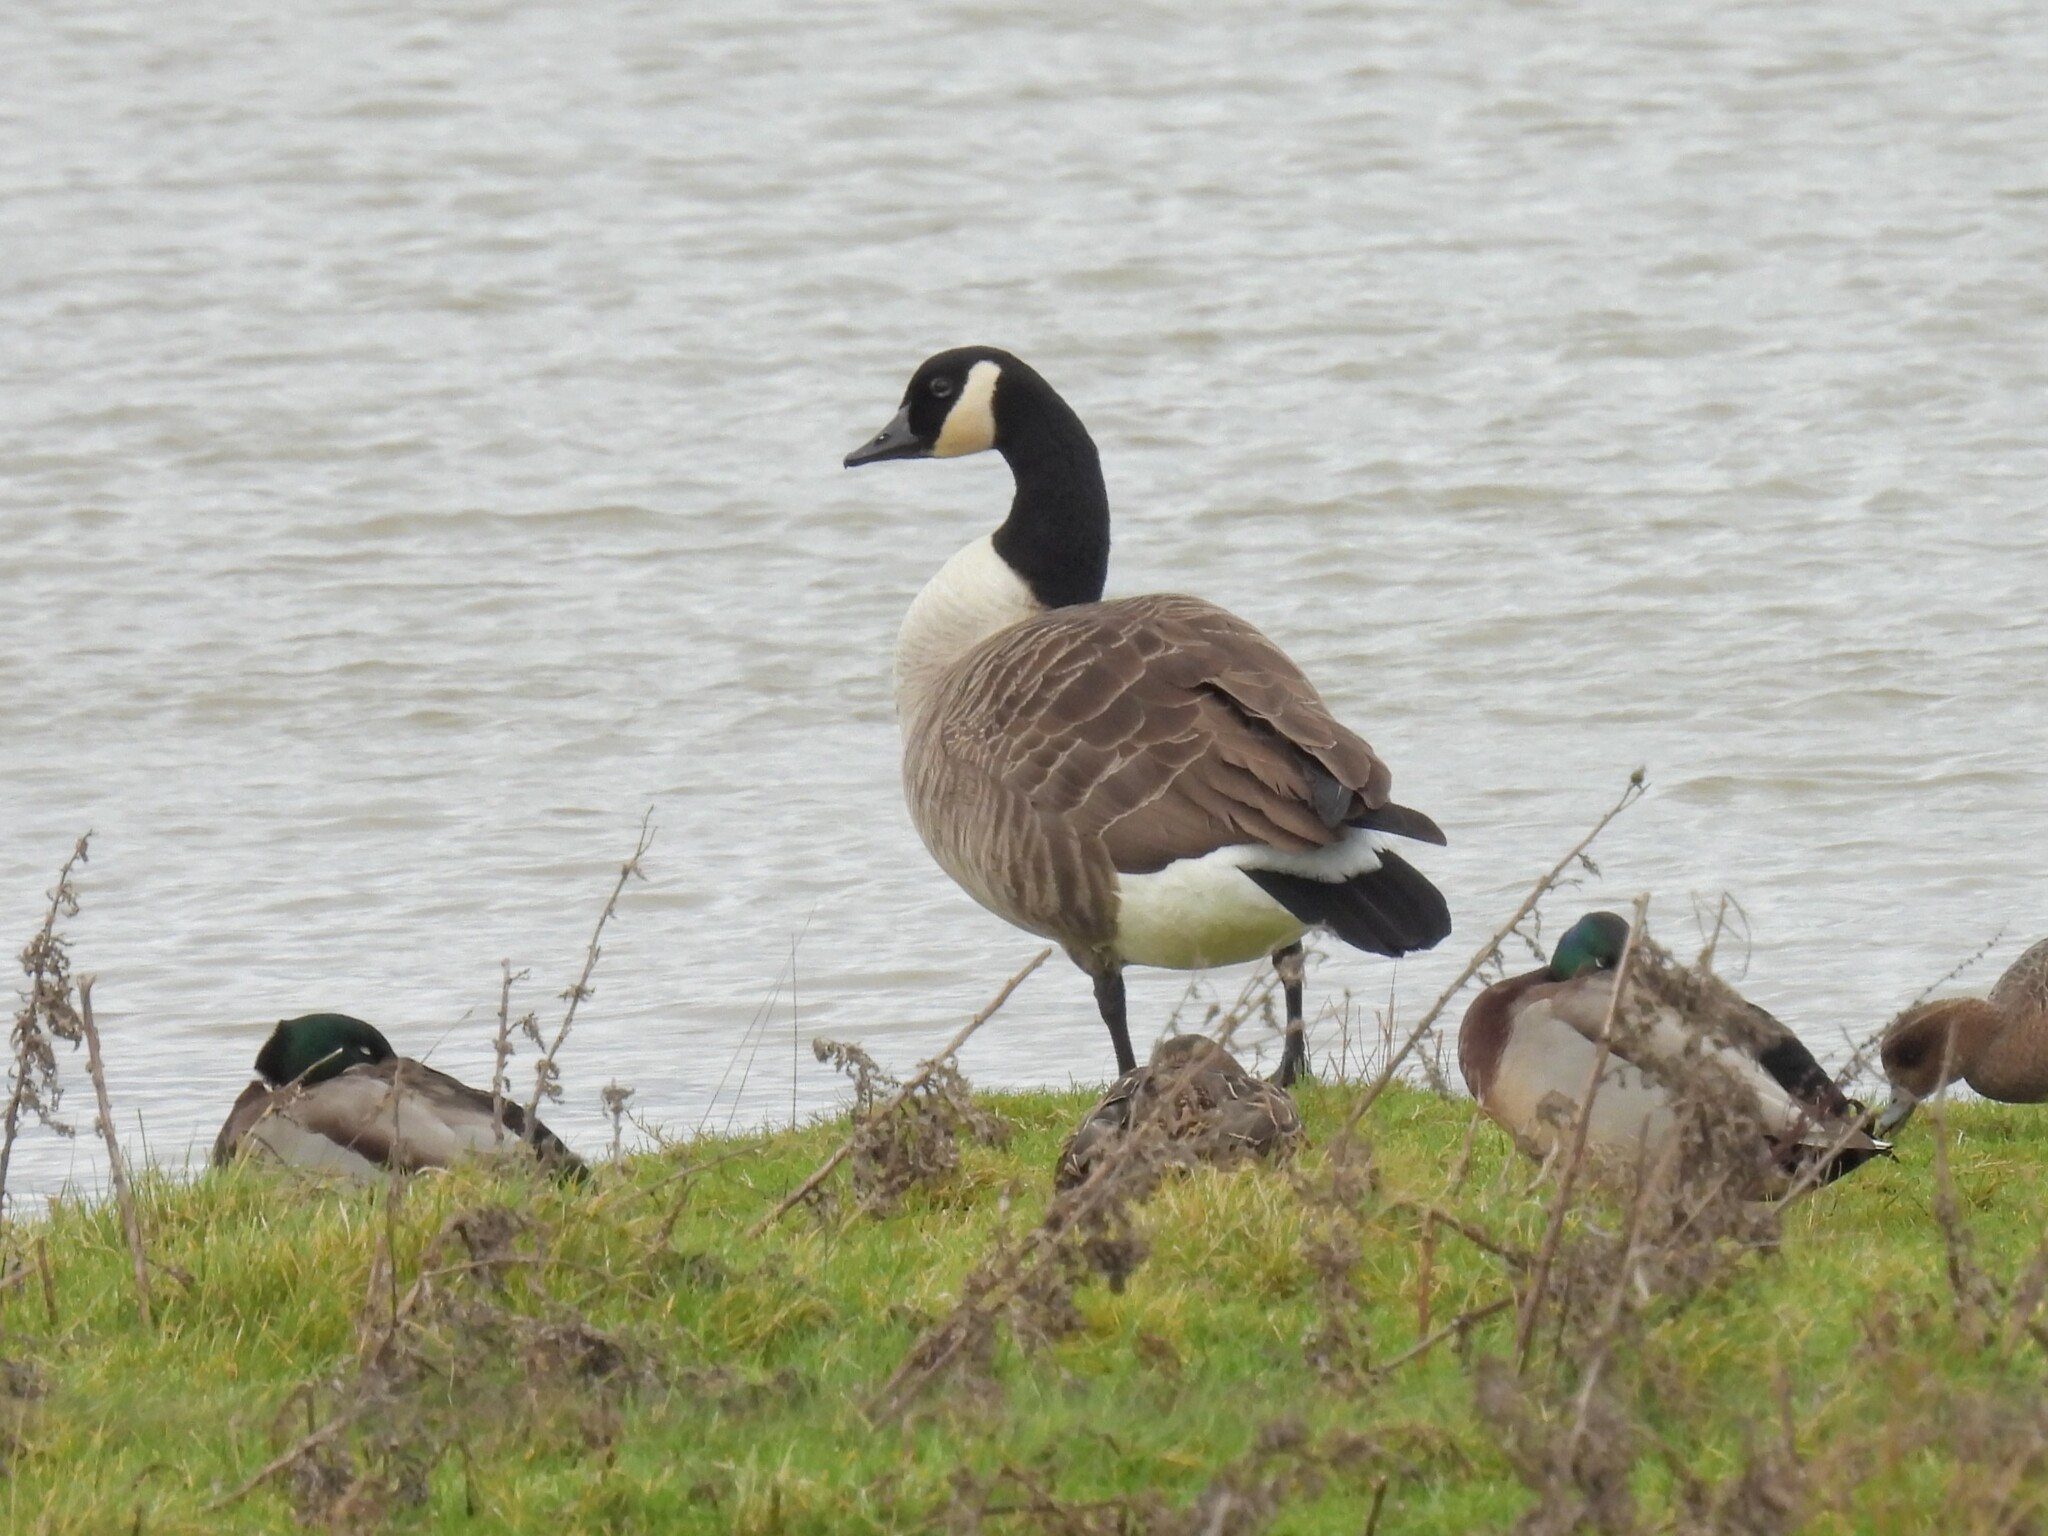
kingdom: Animalia
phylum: Chordata
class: Aves
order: Anseriformes
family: Anatidae
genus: Branta
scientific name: Branta canadensis
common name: Canada goose
